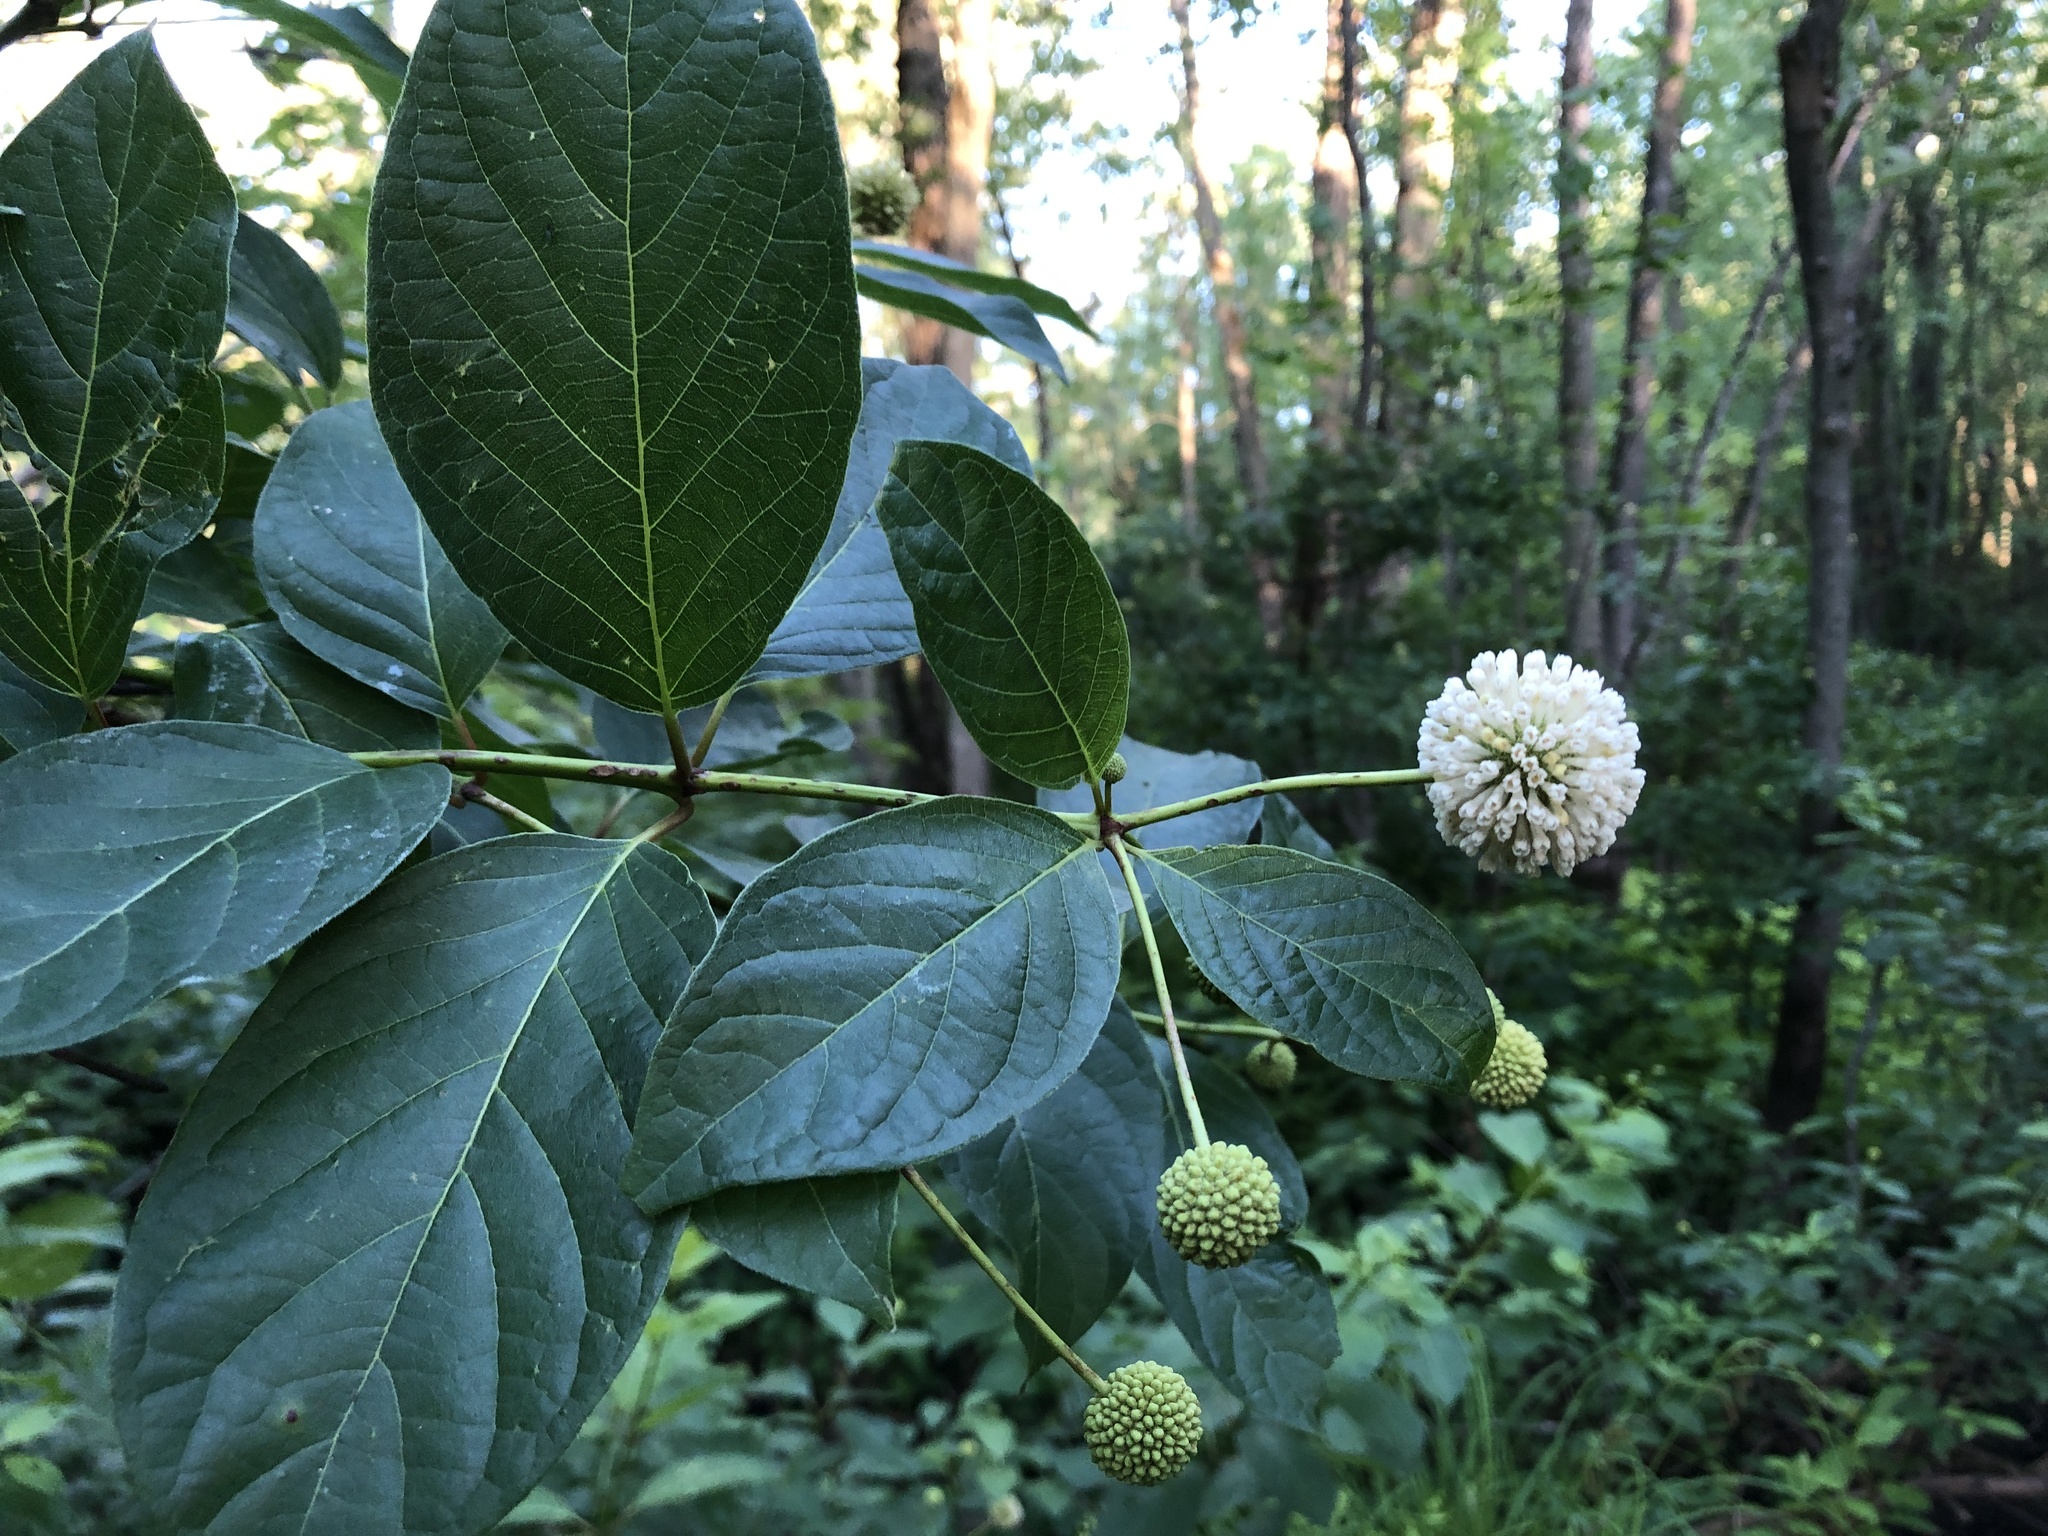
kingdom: Plantae
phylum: Tracheophyta
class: Magnoliopsida
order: Gentianales
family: Rubiaceae
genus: Cephalanthus
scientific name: Cephalanthus occidentalis
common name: Button-willow
